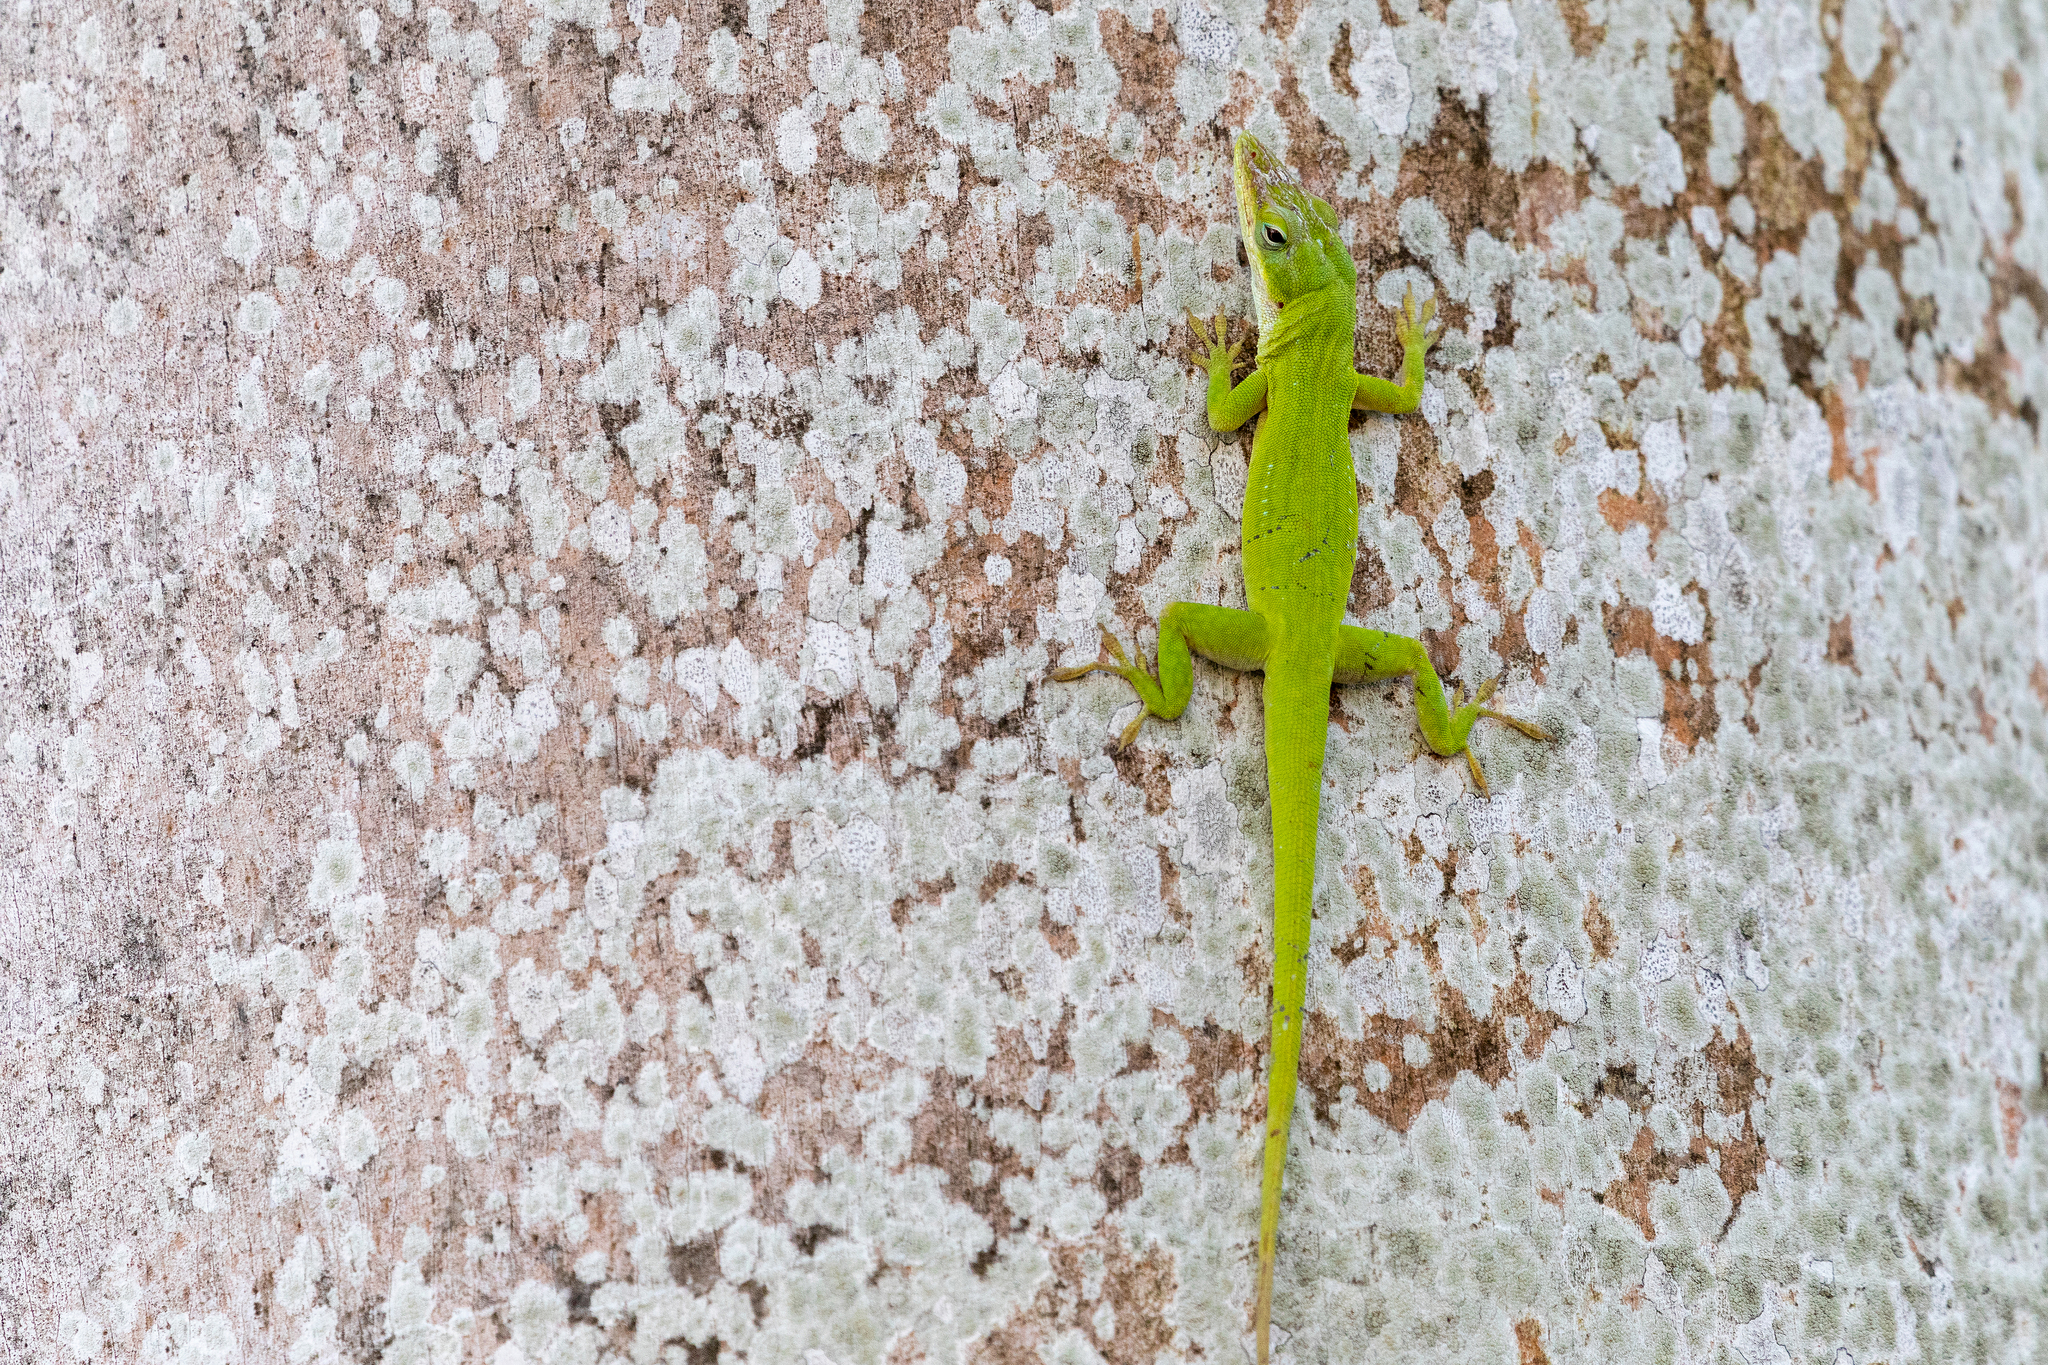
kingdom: Animalia
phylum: Chordata
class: Squamata
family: Dactyloidae
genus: Anolis
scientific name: Anolis carolinensis
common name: Green anole
